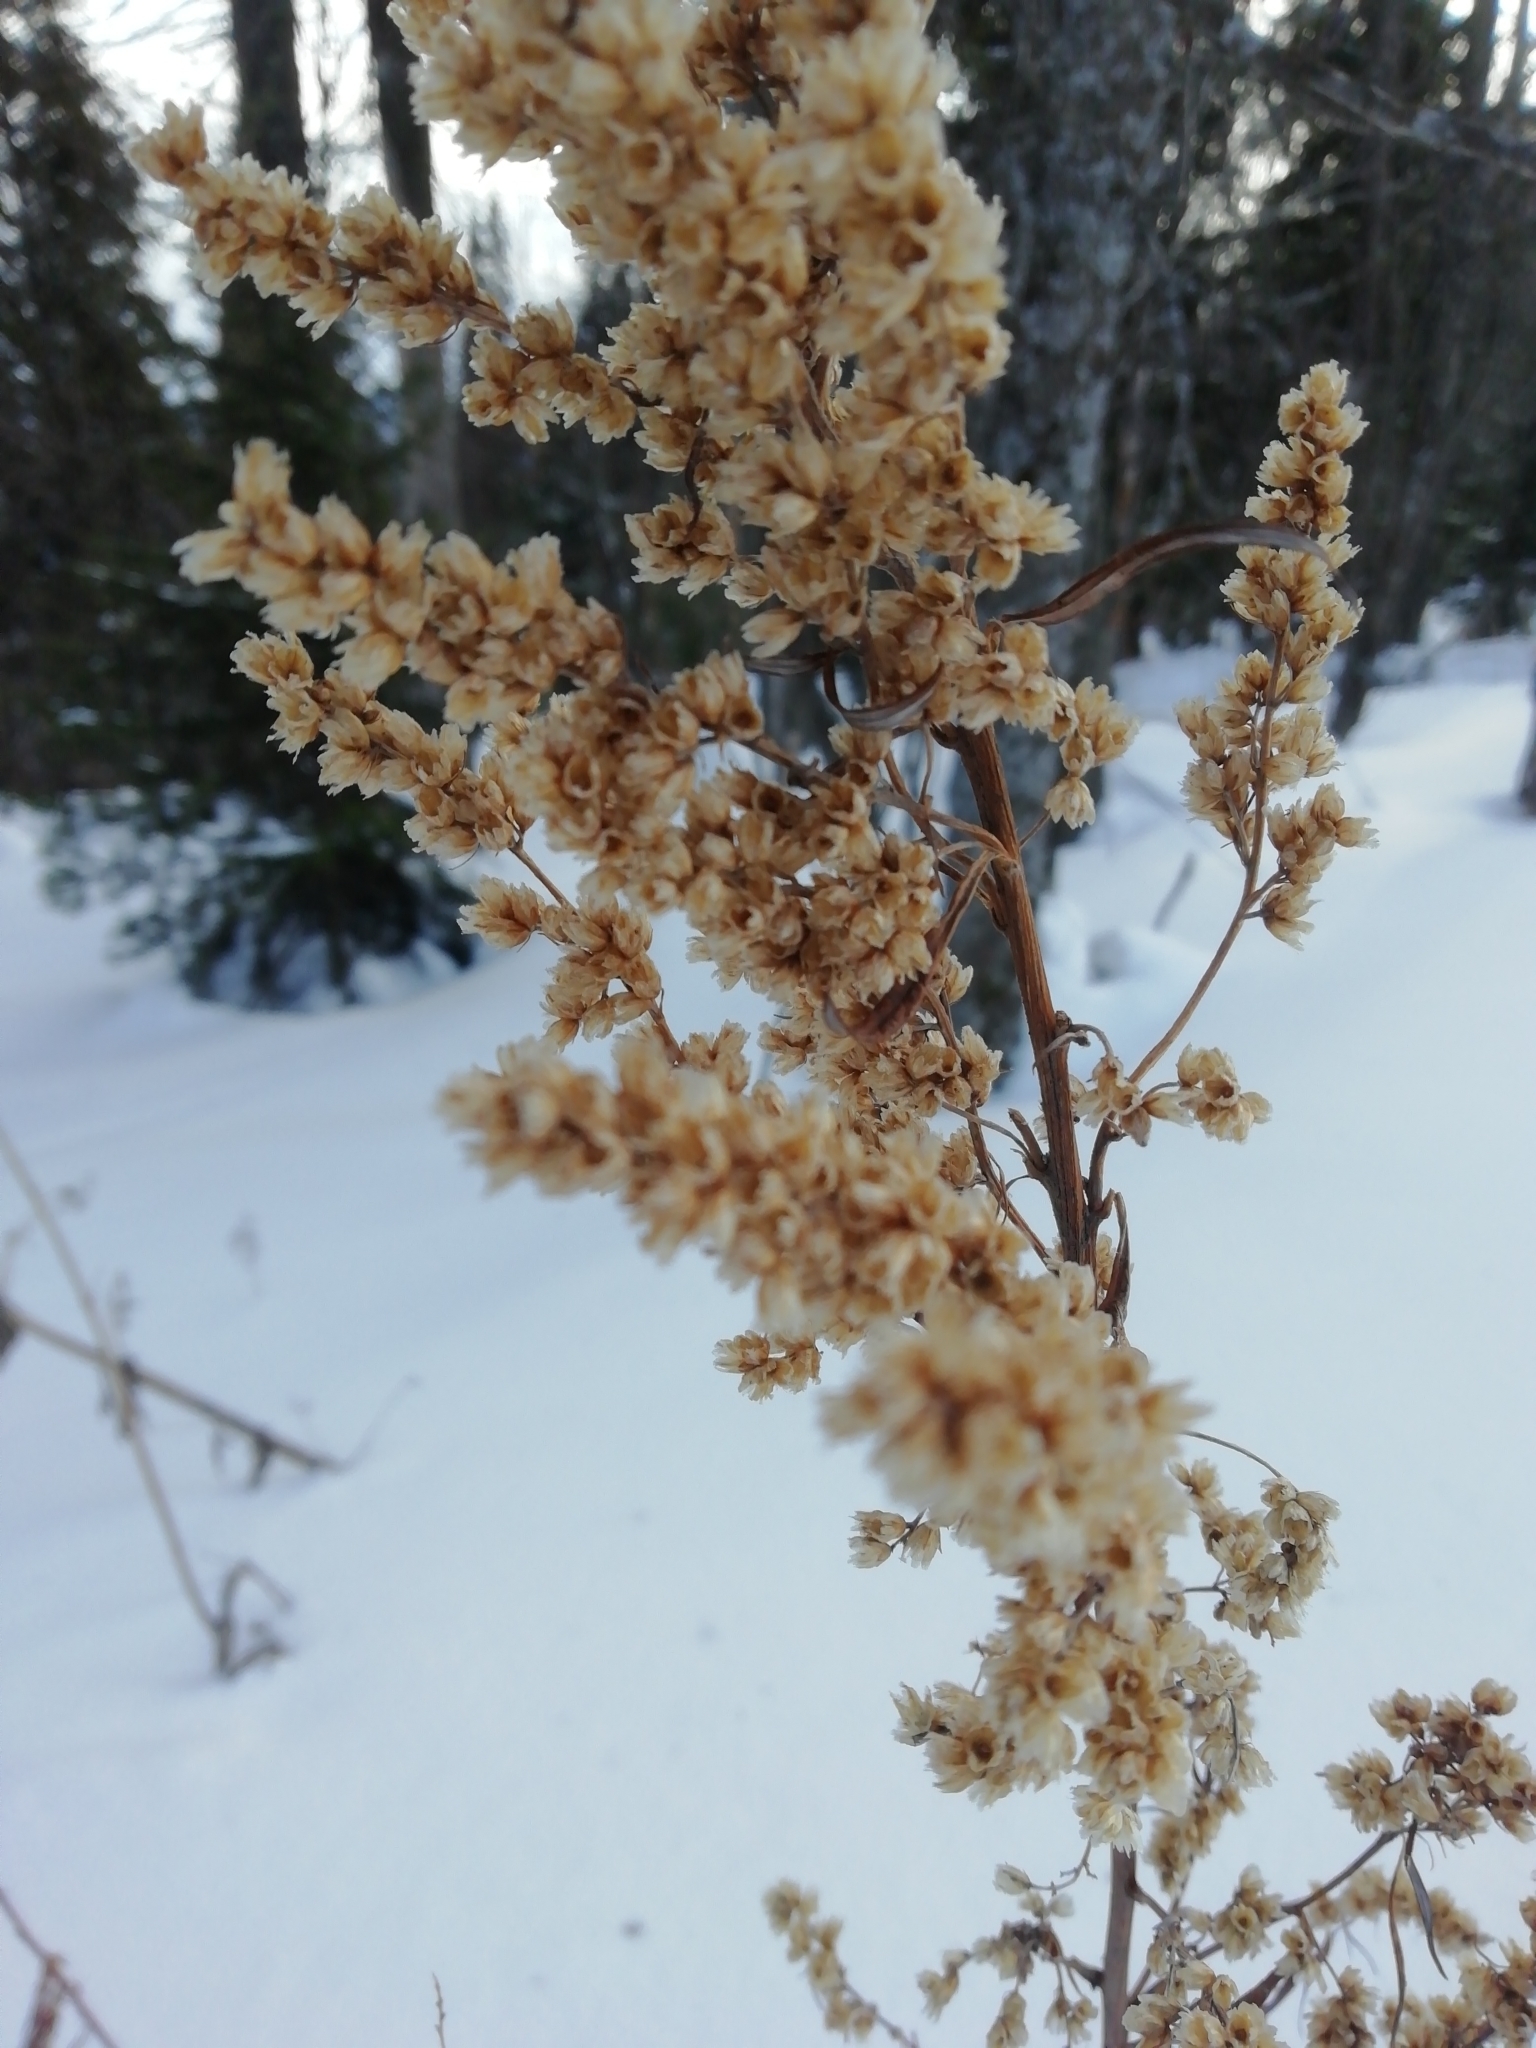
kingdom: Plantae
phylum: Tracheophyta
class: Magnoliopsida
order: Asterales
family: Asteraceae
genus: Artemisia
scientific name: Artemisia vulgaris
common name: Mugwort
